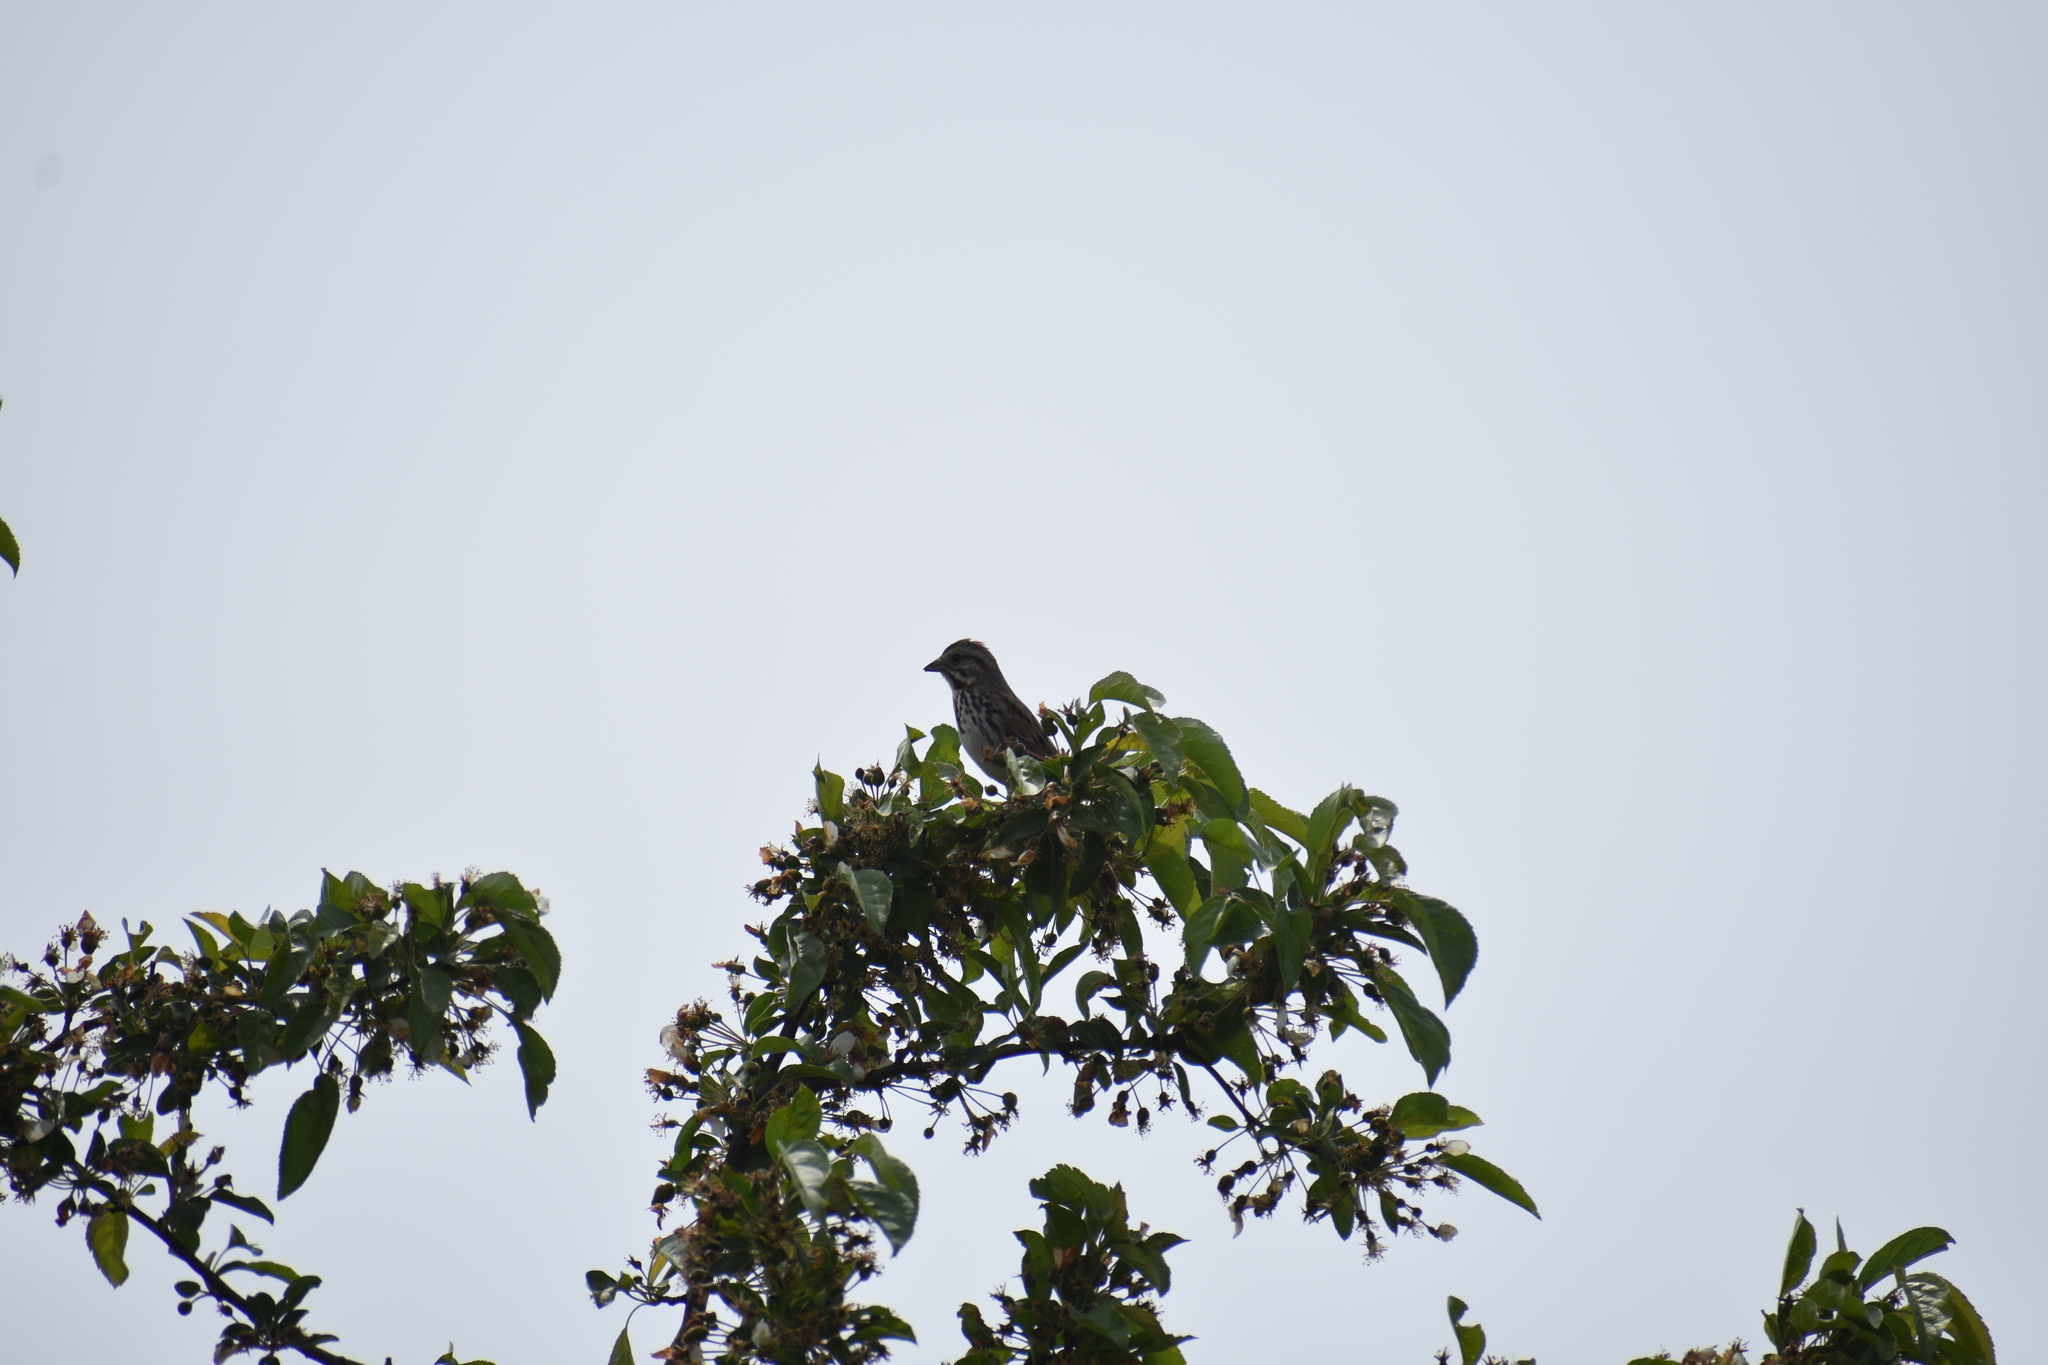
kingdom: Animalia
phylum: Chordata
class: Aves
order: Passeriformes
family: Passerellidae
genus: Melospiza
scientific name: Melospiza melodia
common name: Song sparrow
